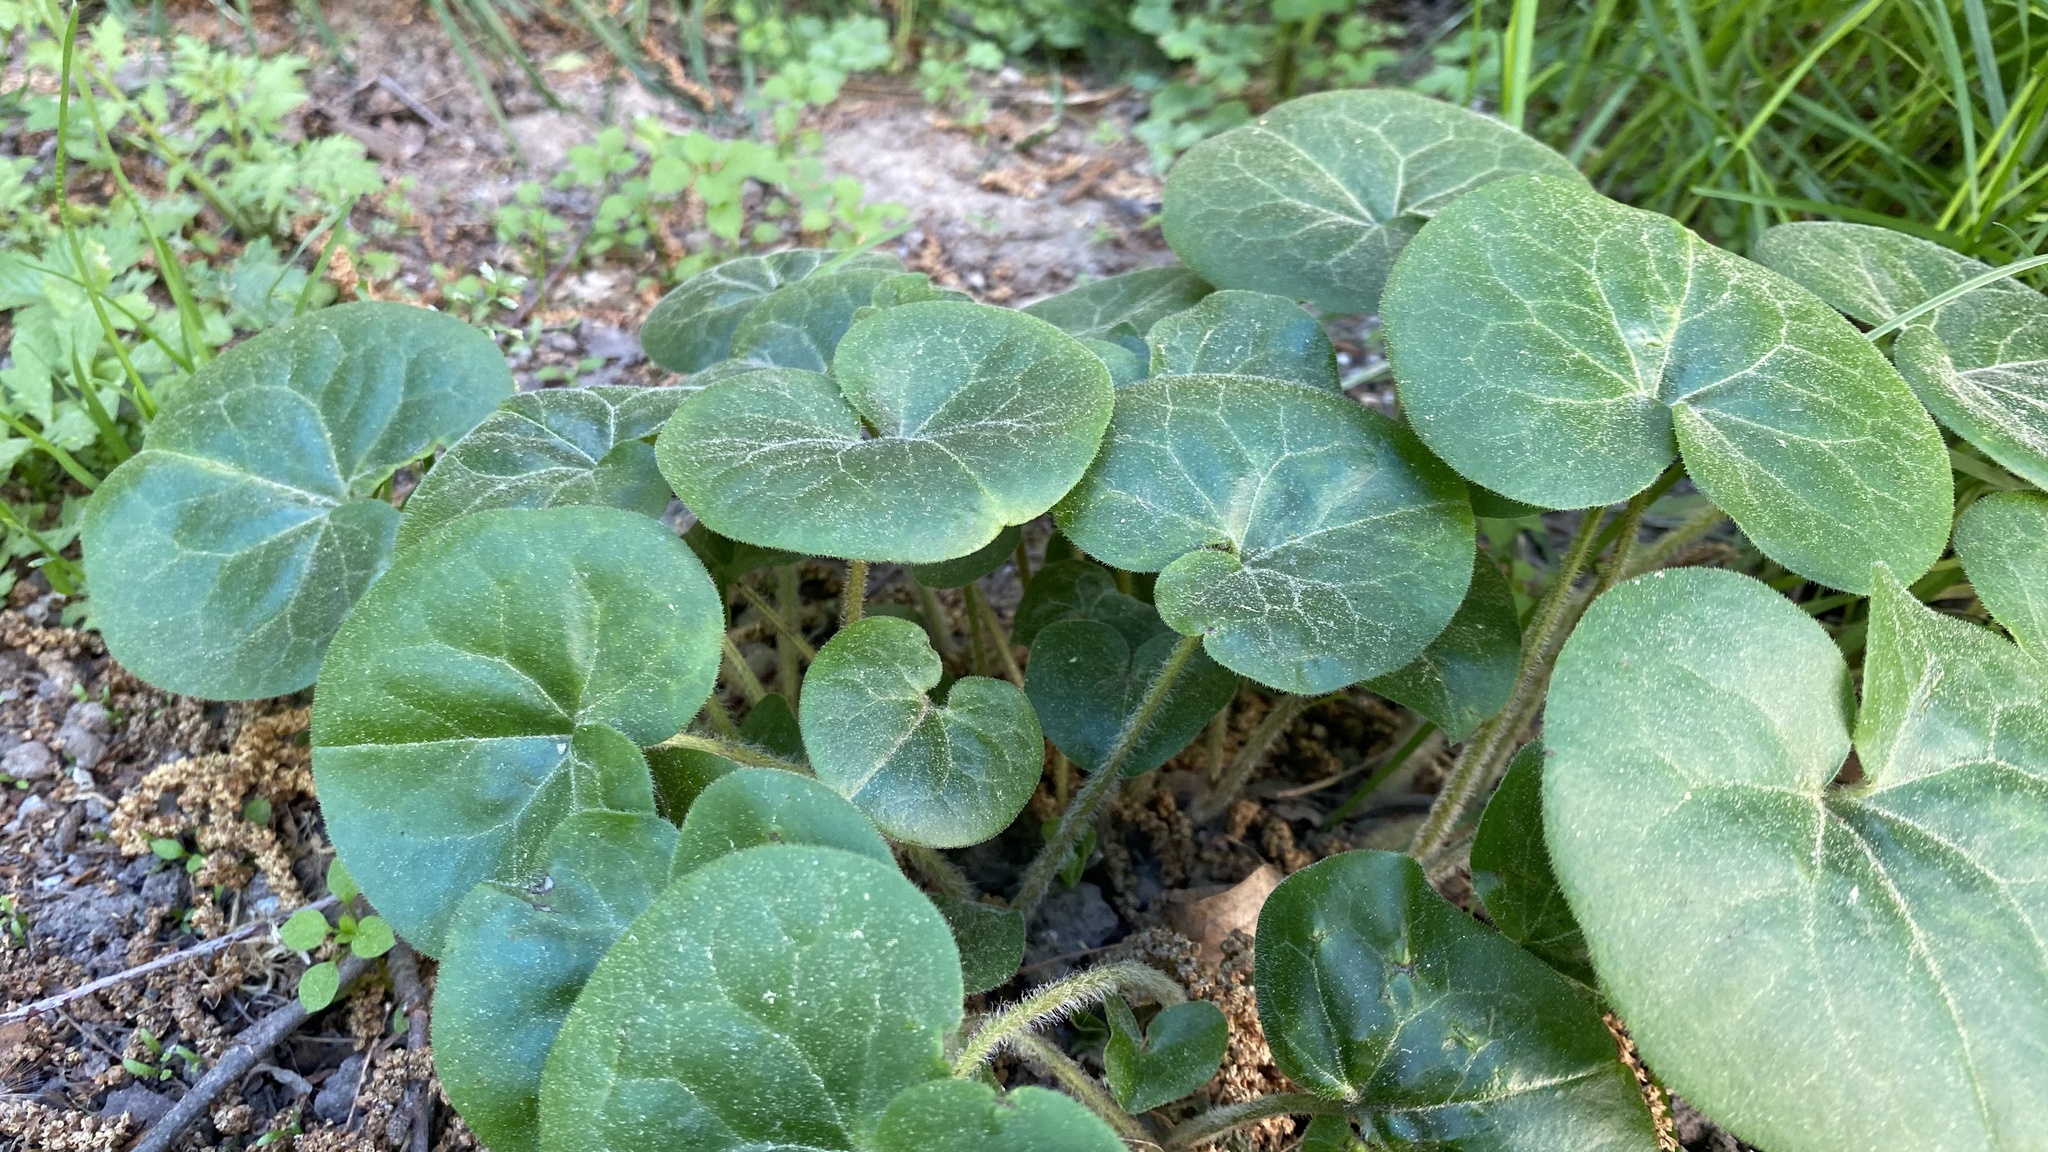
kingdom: Plantae
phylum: Tracheophyta
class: Magnoliopsida
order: Piperales
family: Aristolochiaceae
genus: Asarum
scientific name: Asarum europaeum
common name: Asarabacca
